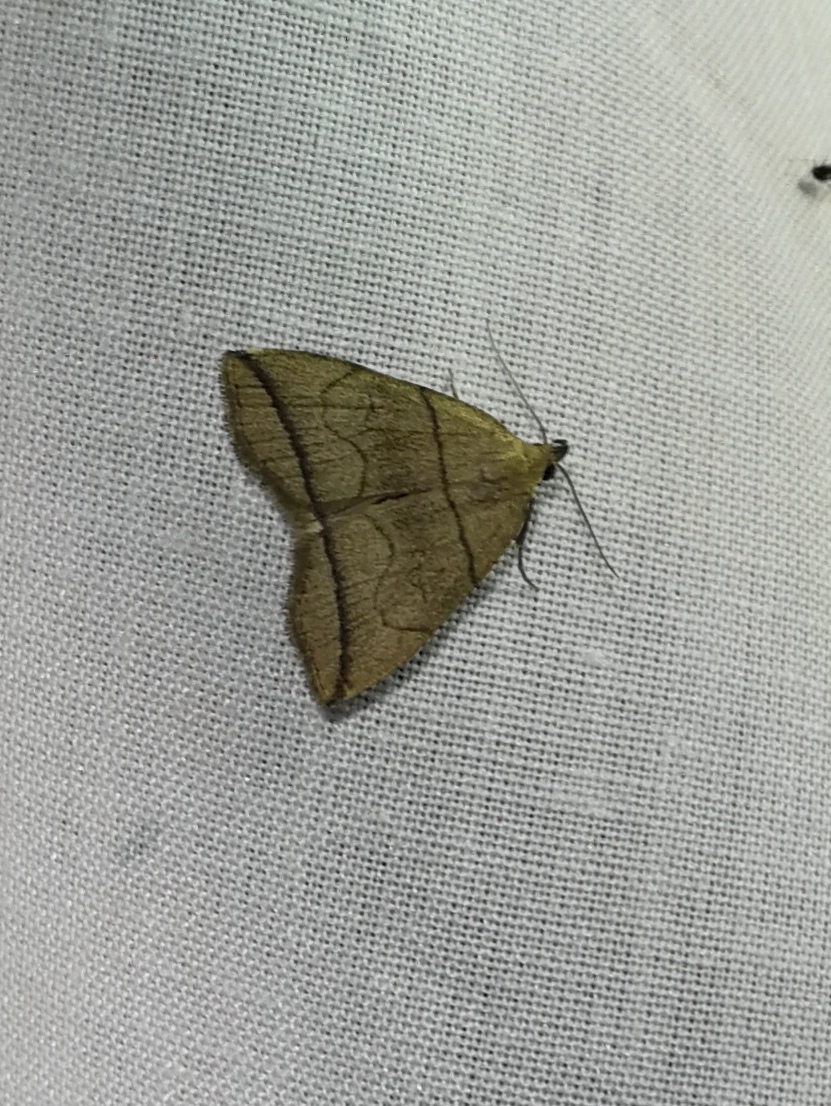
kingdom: Animalia
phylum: Arthropoda
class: Insecta
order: Lepidoptera
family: Erebidae
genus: Herminia
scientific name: Herminia grisealis
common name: Small fan-foot
